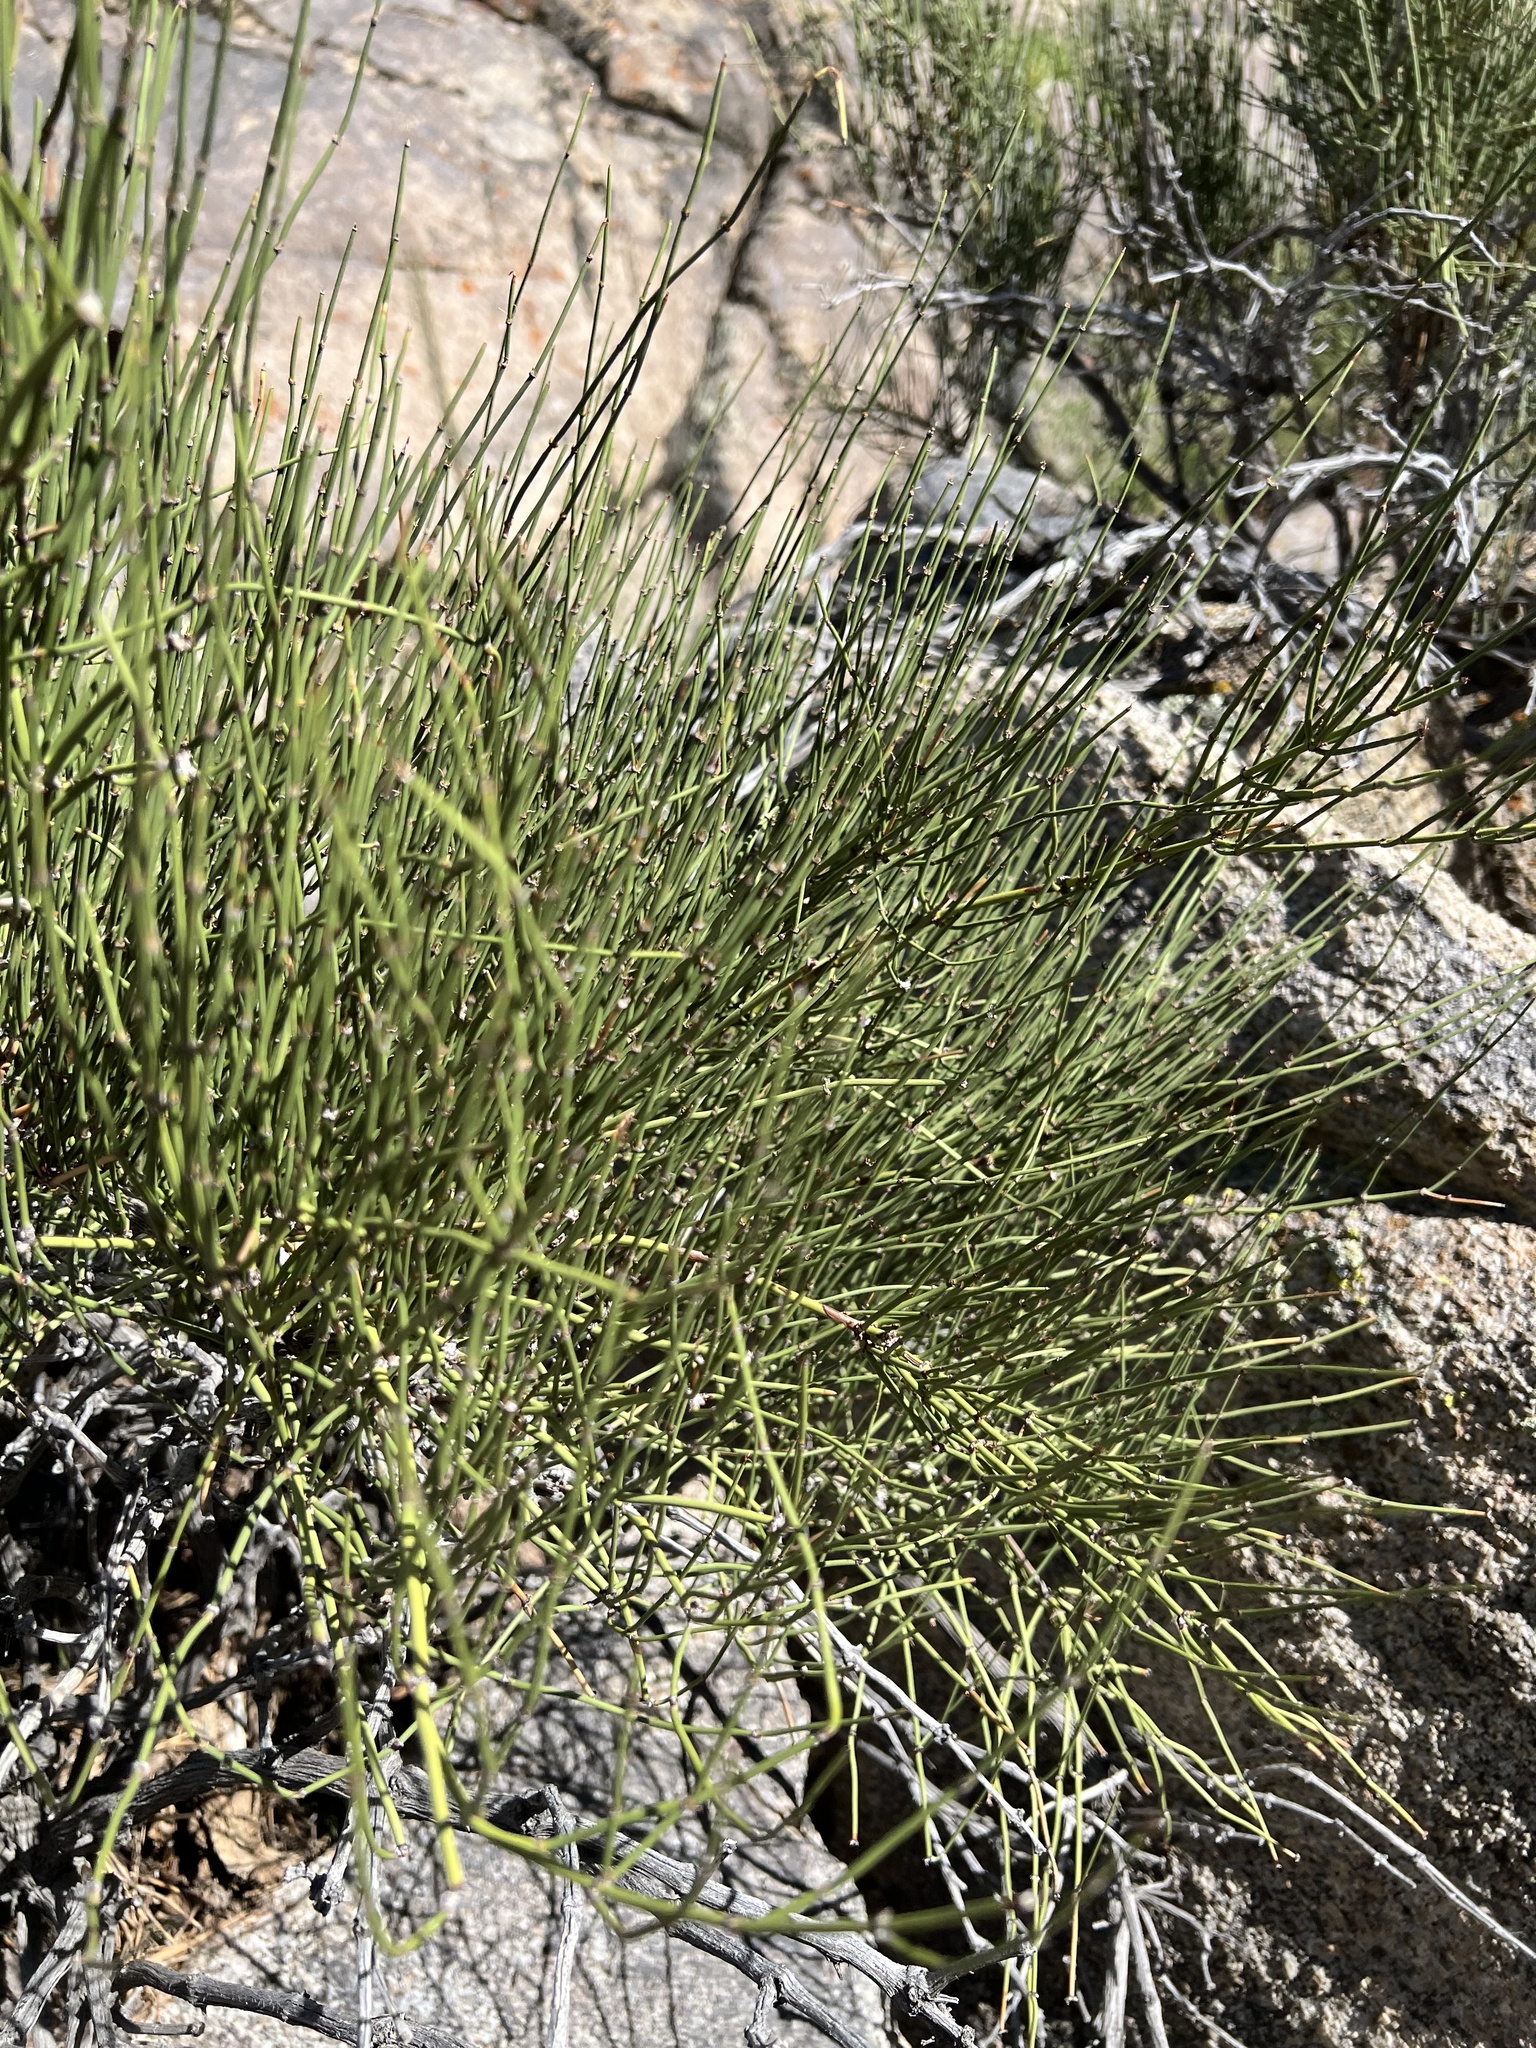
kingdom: Plantae
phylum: Tracheophyta
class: Gnetopsida
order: Ephedrales
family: Ephedraceae
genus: Ephedra
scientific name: Ephedra viridis
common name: Green ephedra
